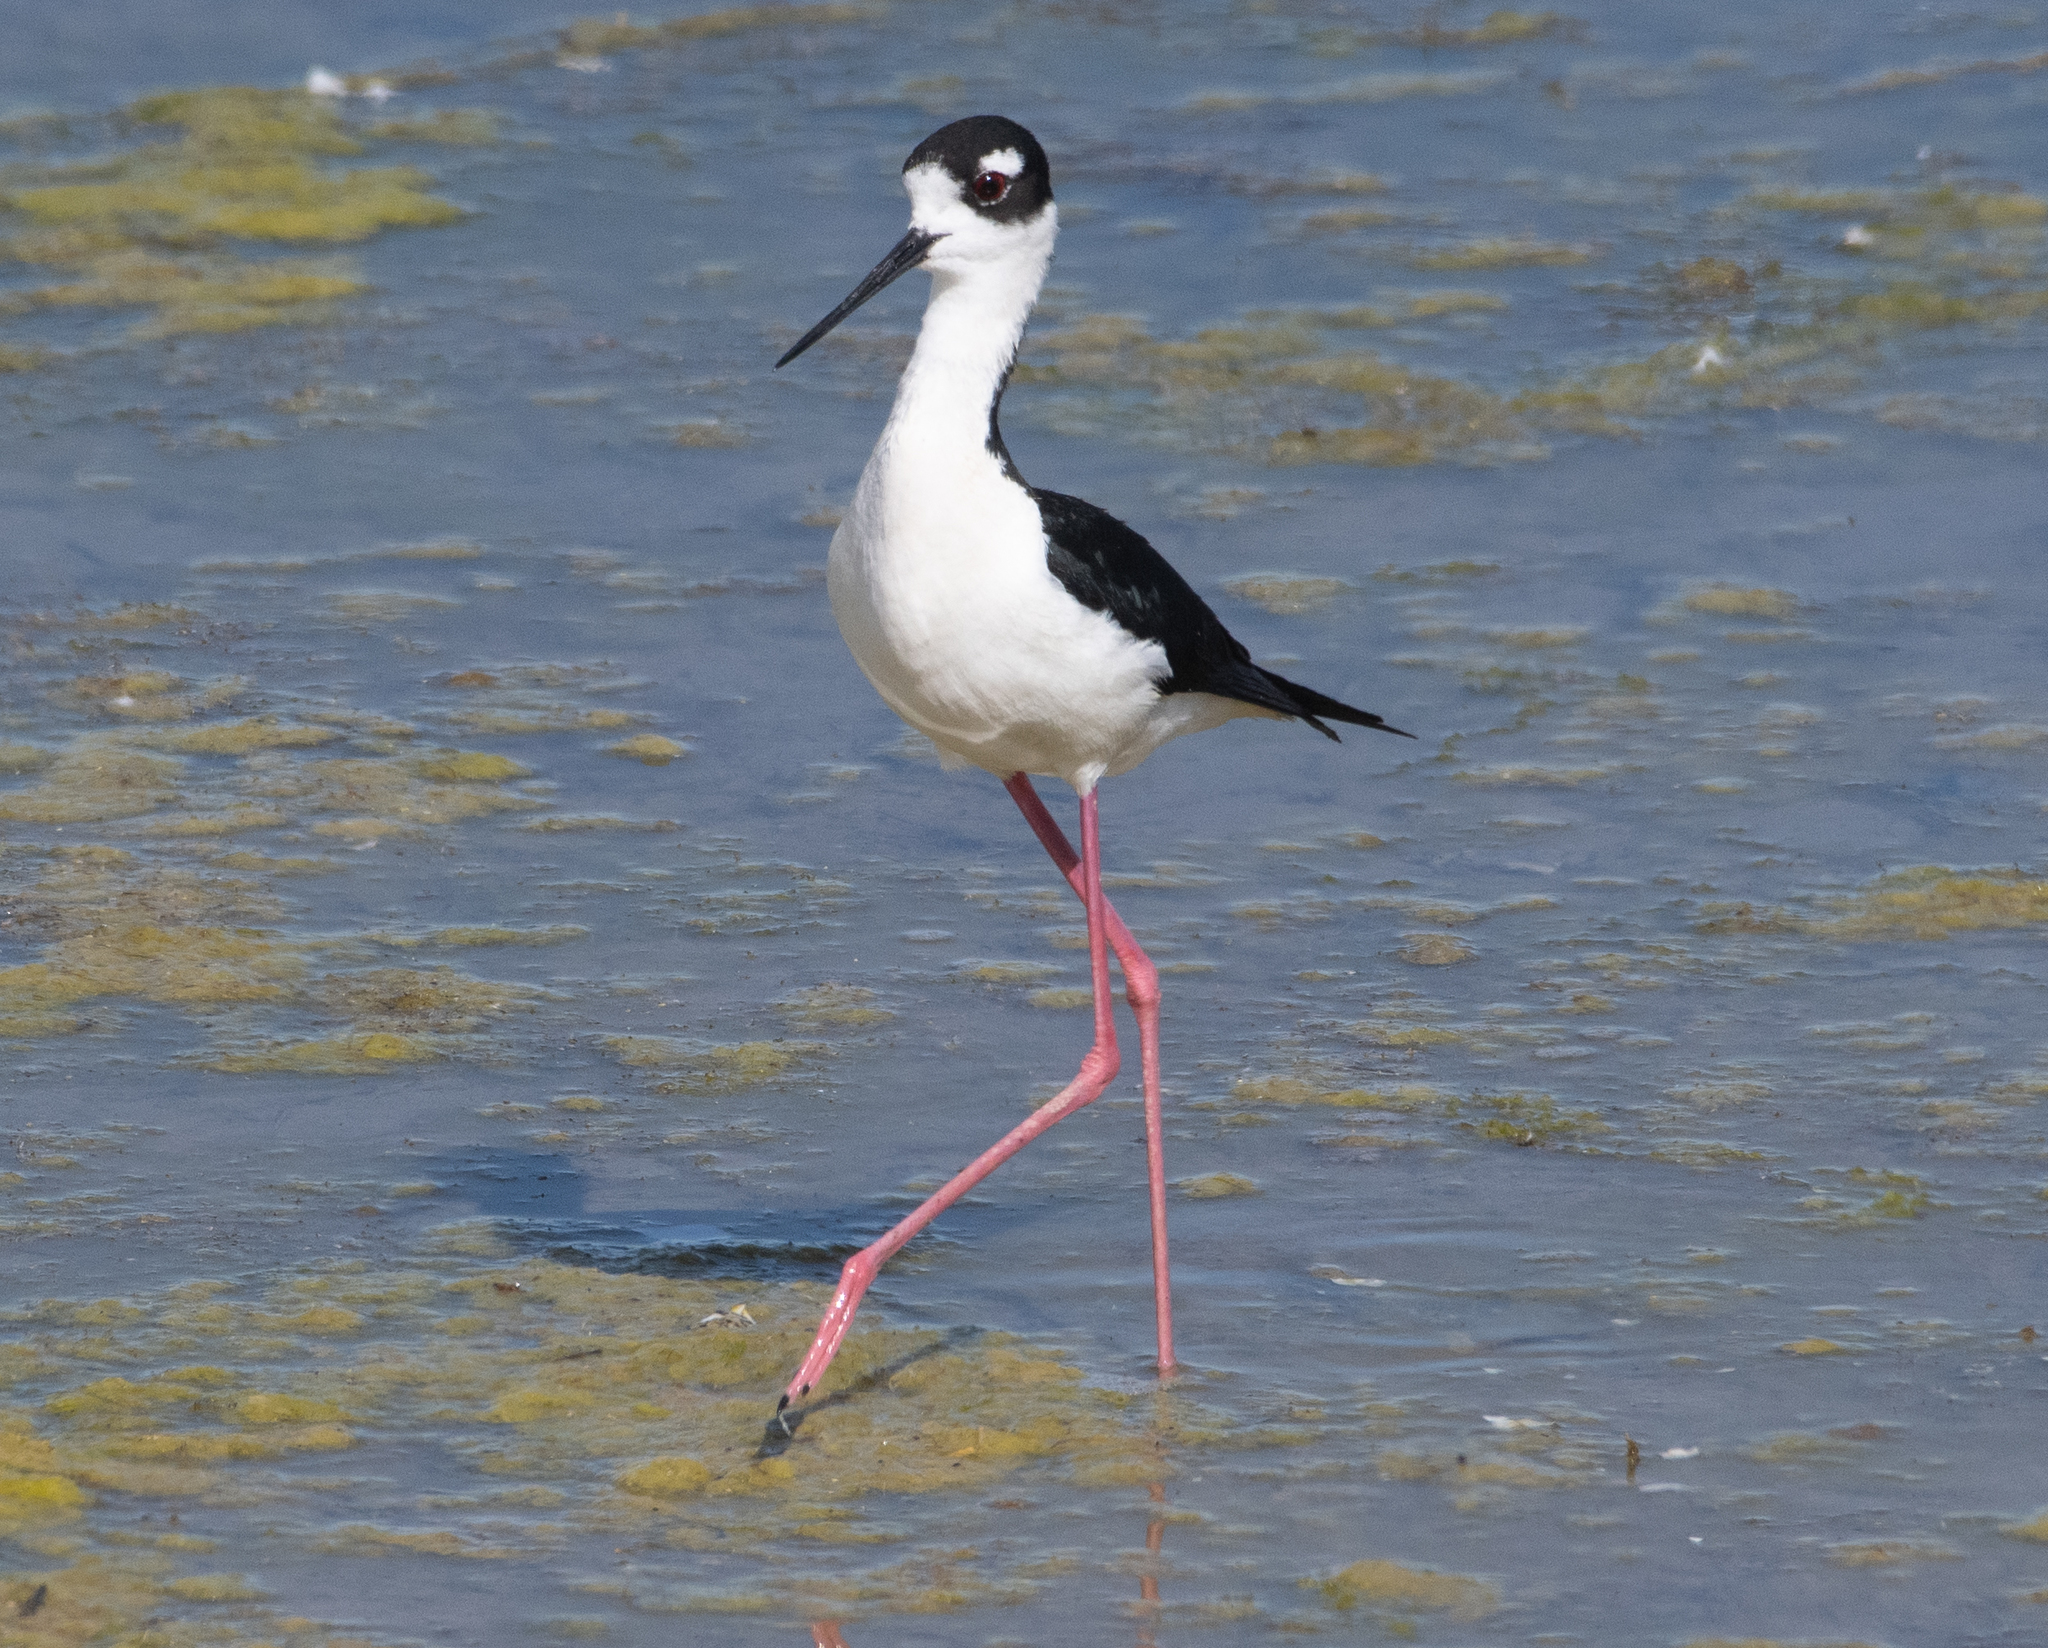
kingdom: Animalia
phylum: Chordata
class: Aves
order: Charadriiformes
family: Recurvirostridae
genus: Himantopus
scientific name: Himantopus mexicanus
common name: Black-necked stilt
